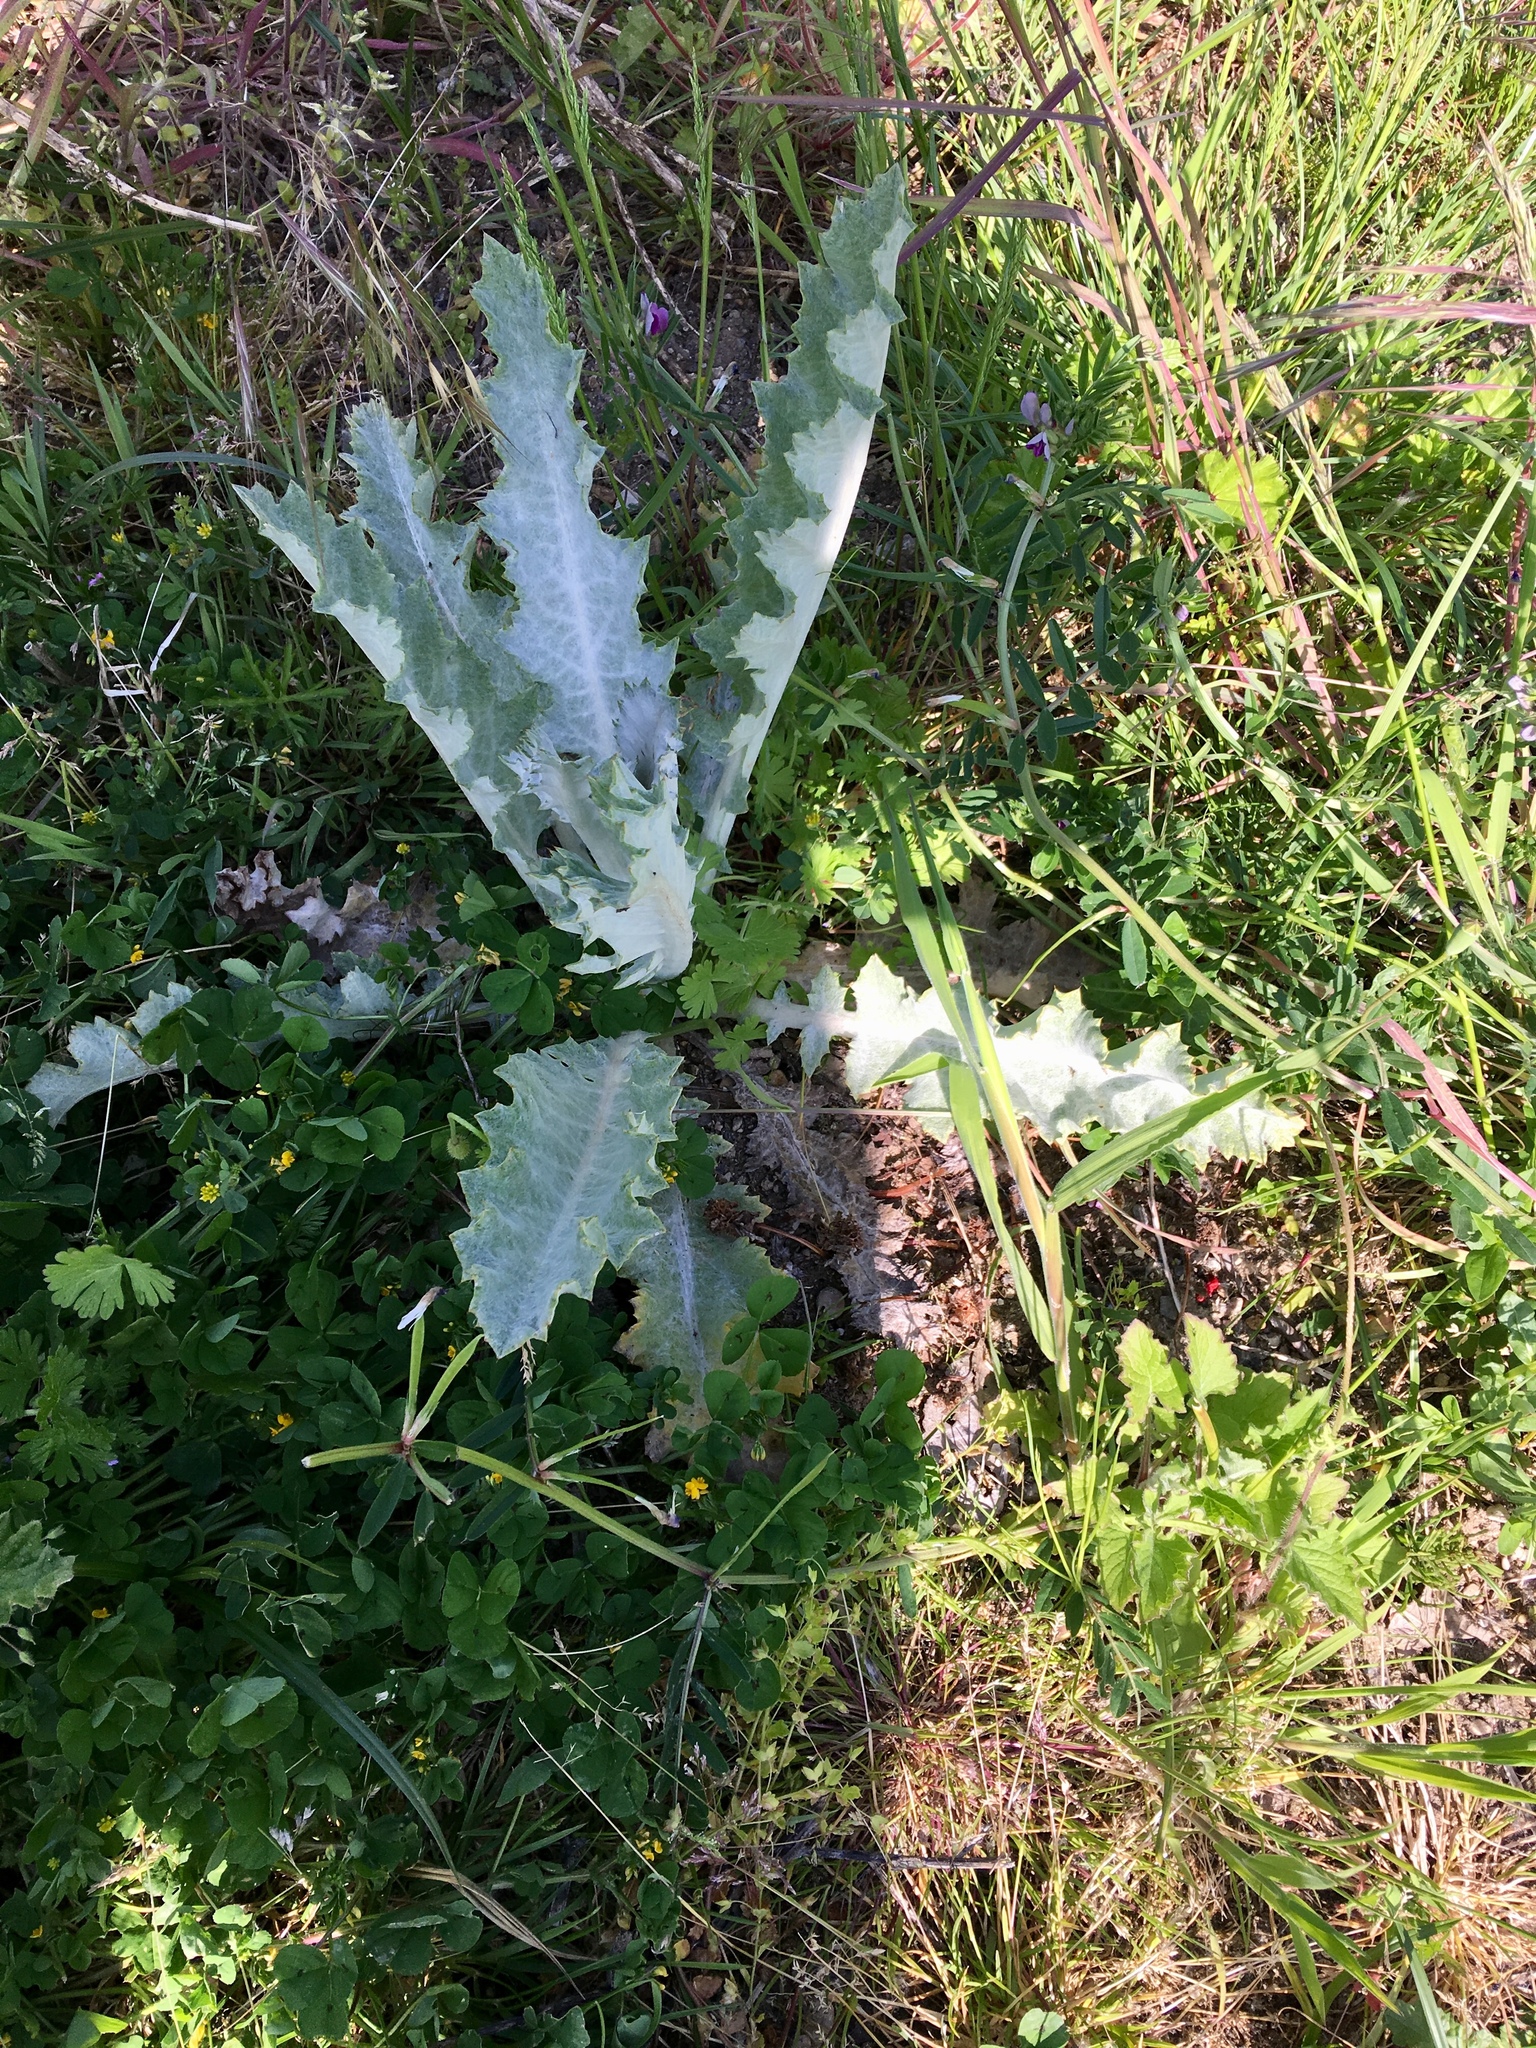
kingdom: Plantae
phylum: Tracheophyta
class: Magnoliopsida
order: Asterales
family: Asteraceae
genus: Onopordum
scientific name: Onopordum acanthium
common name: Scotch thistle
